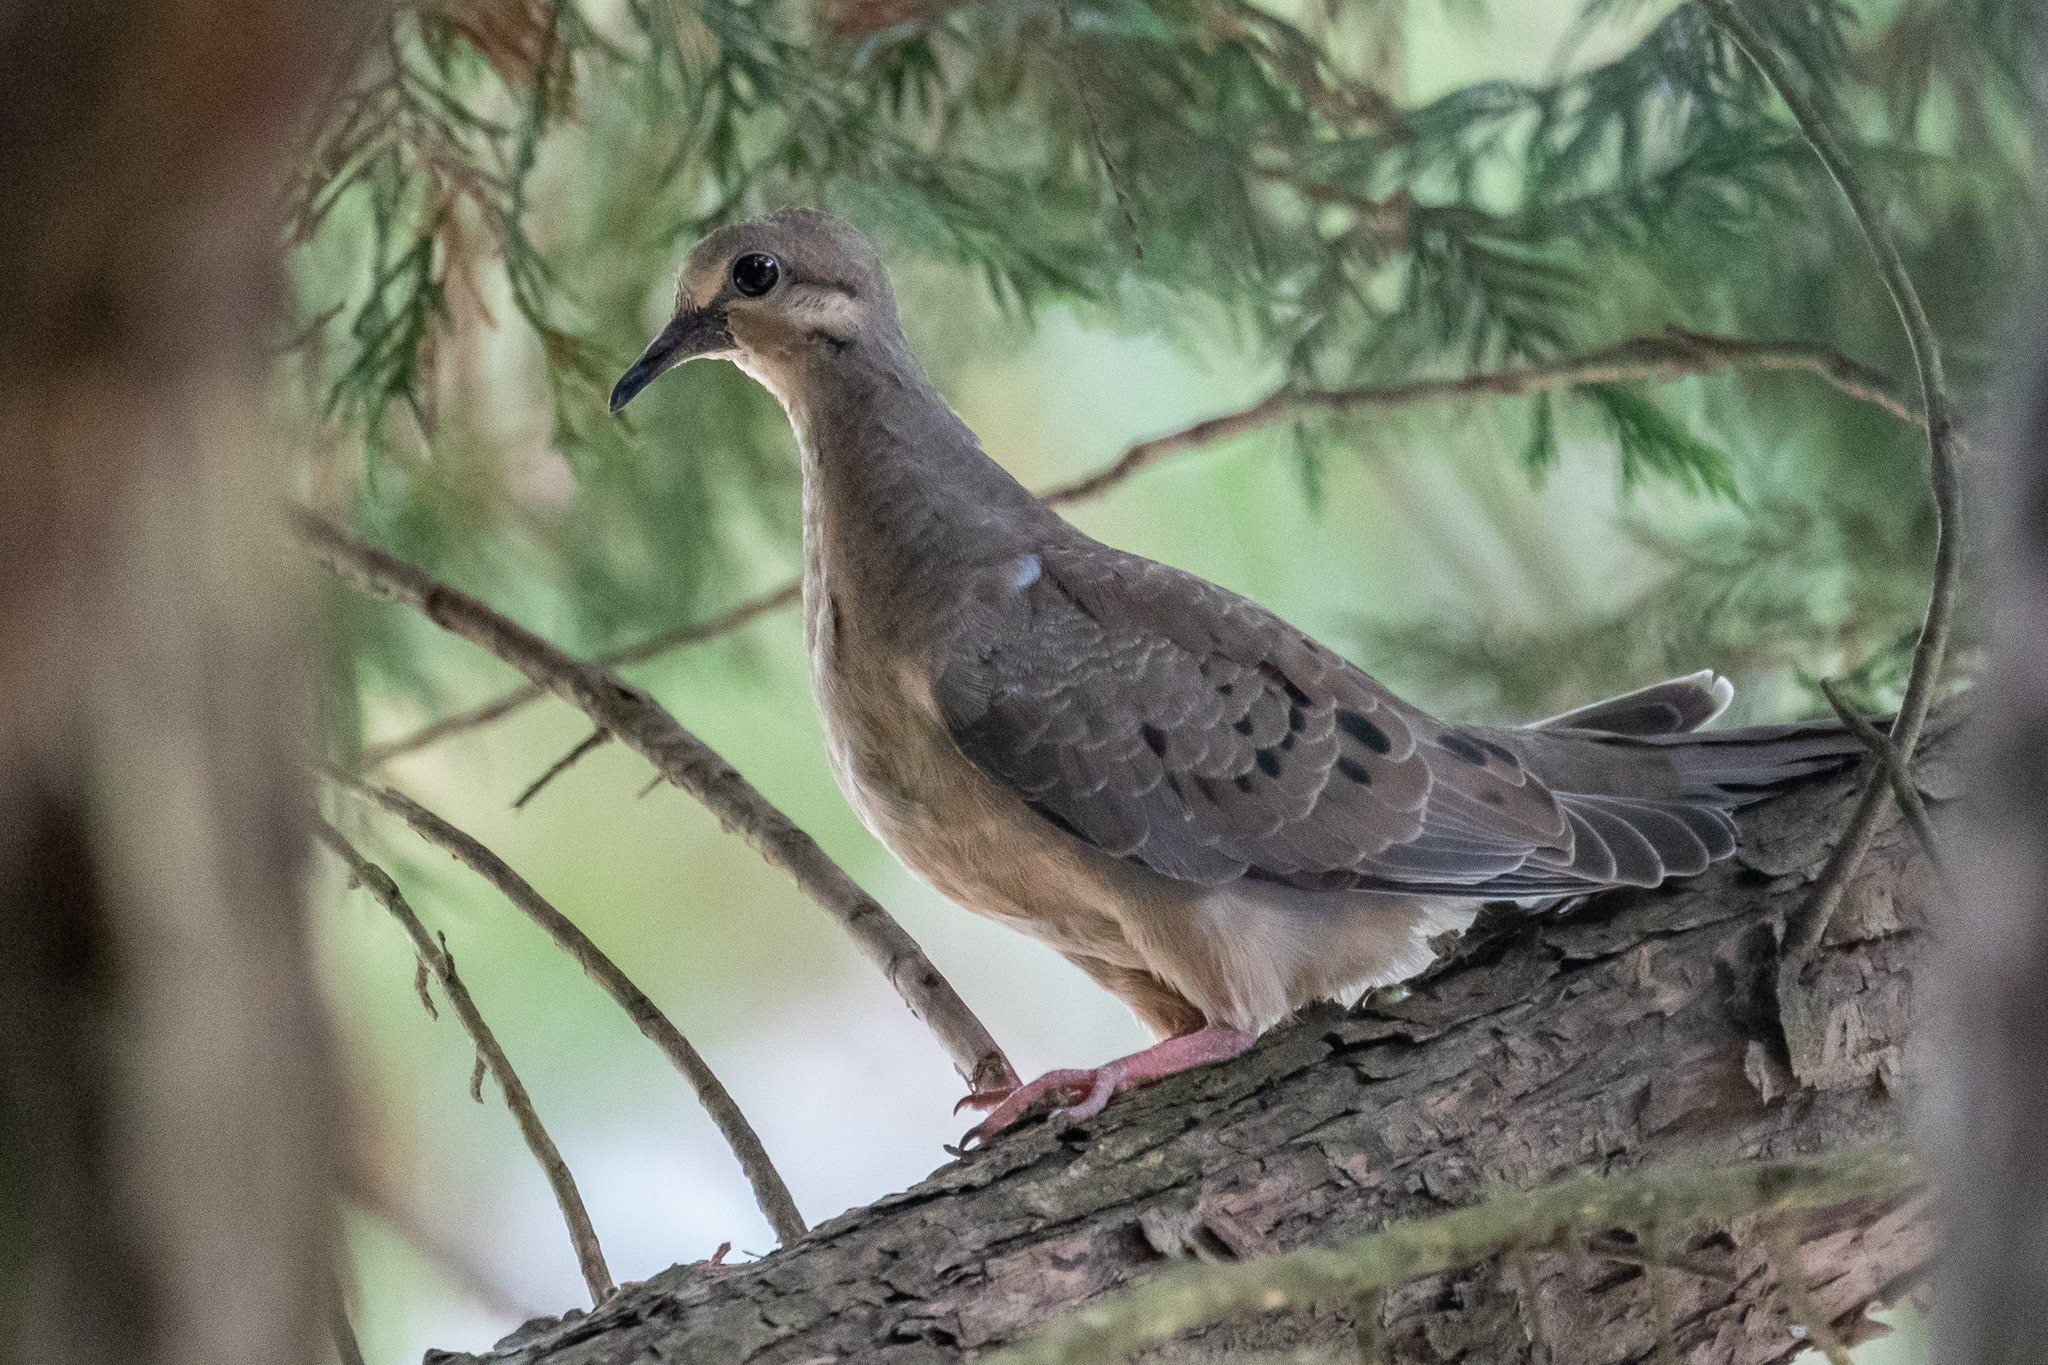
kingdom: Animalia
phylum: Chordata
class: Aves
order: Columbiformes
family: Columbidae
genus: Zenaida
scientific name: Zenaida macroura
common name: Mourning dove
